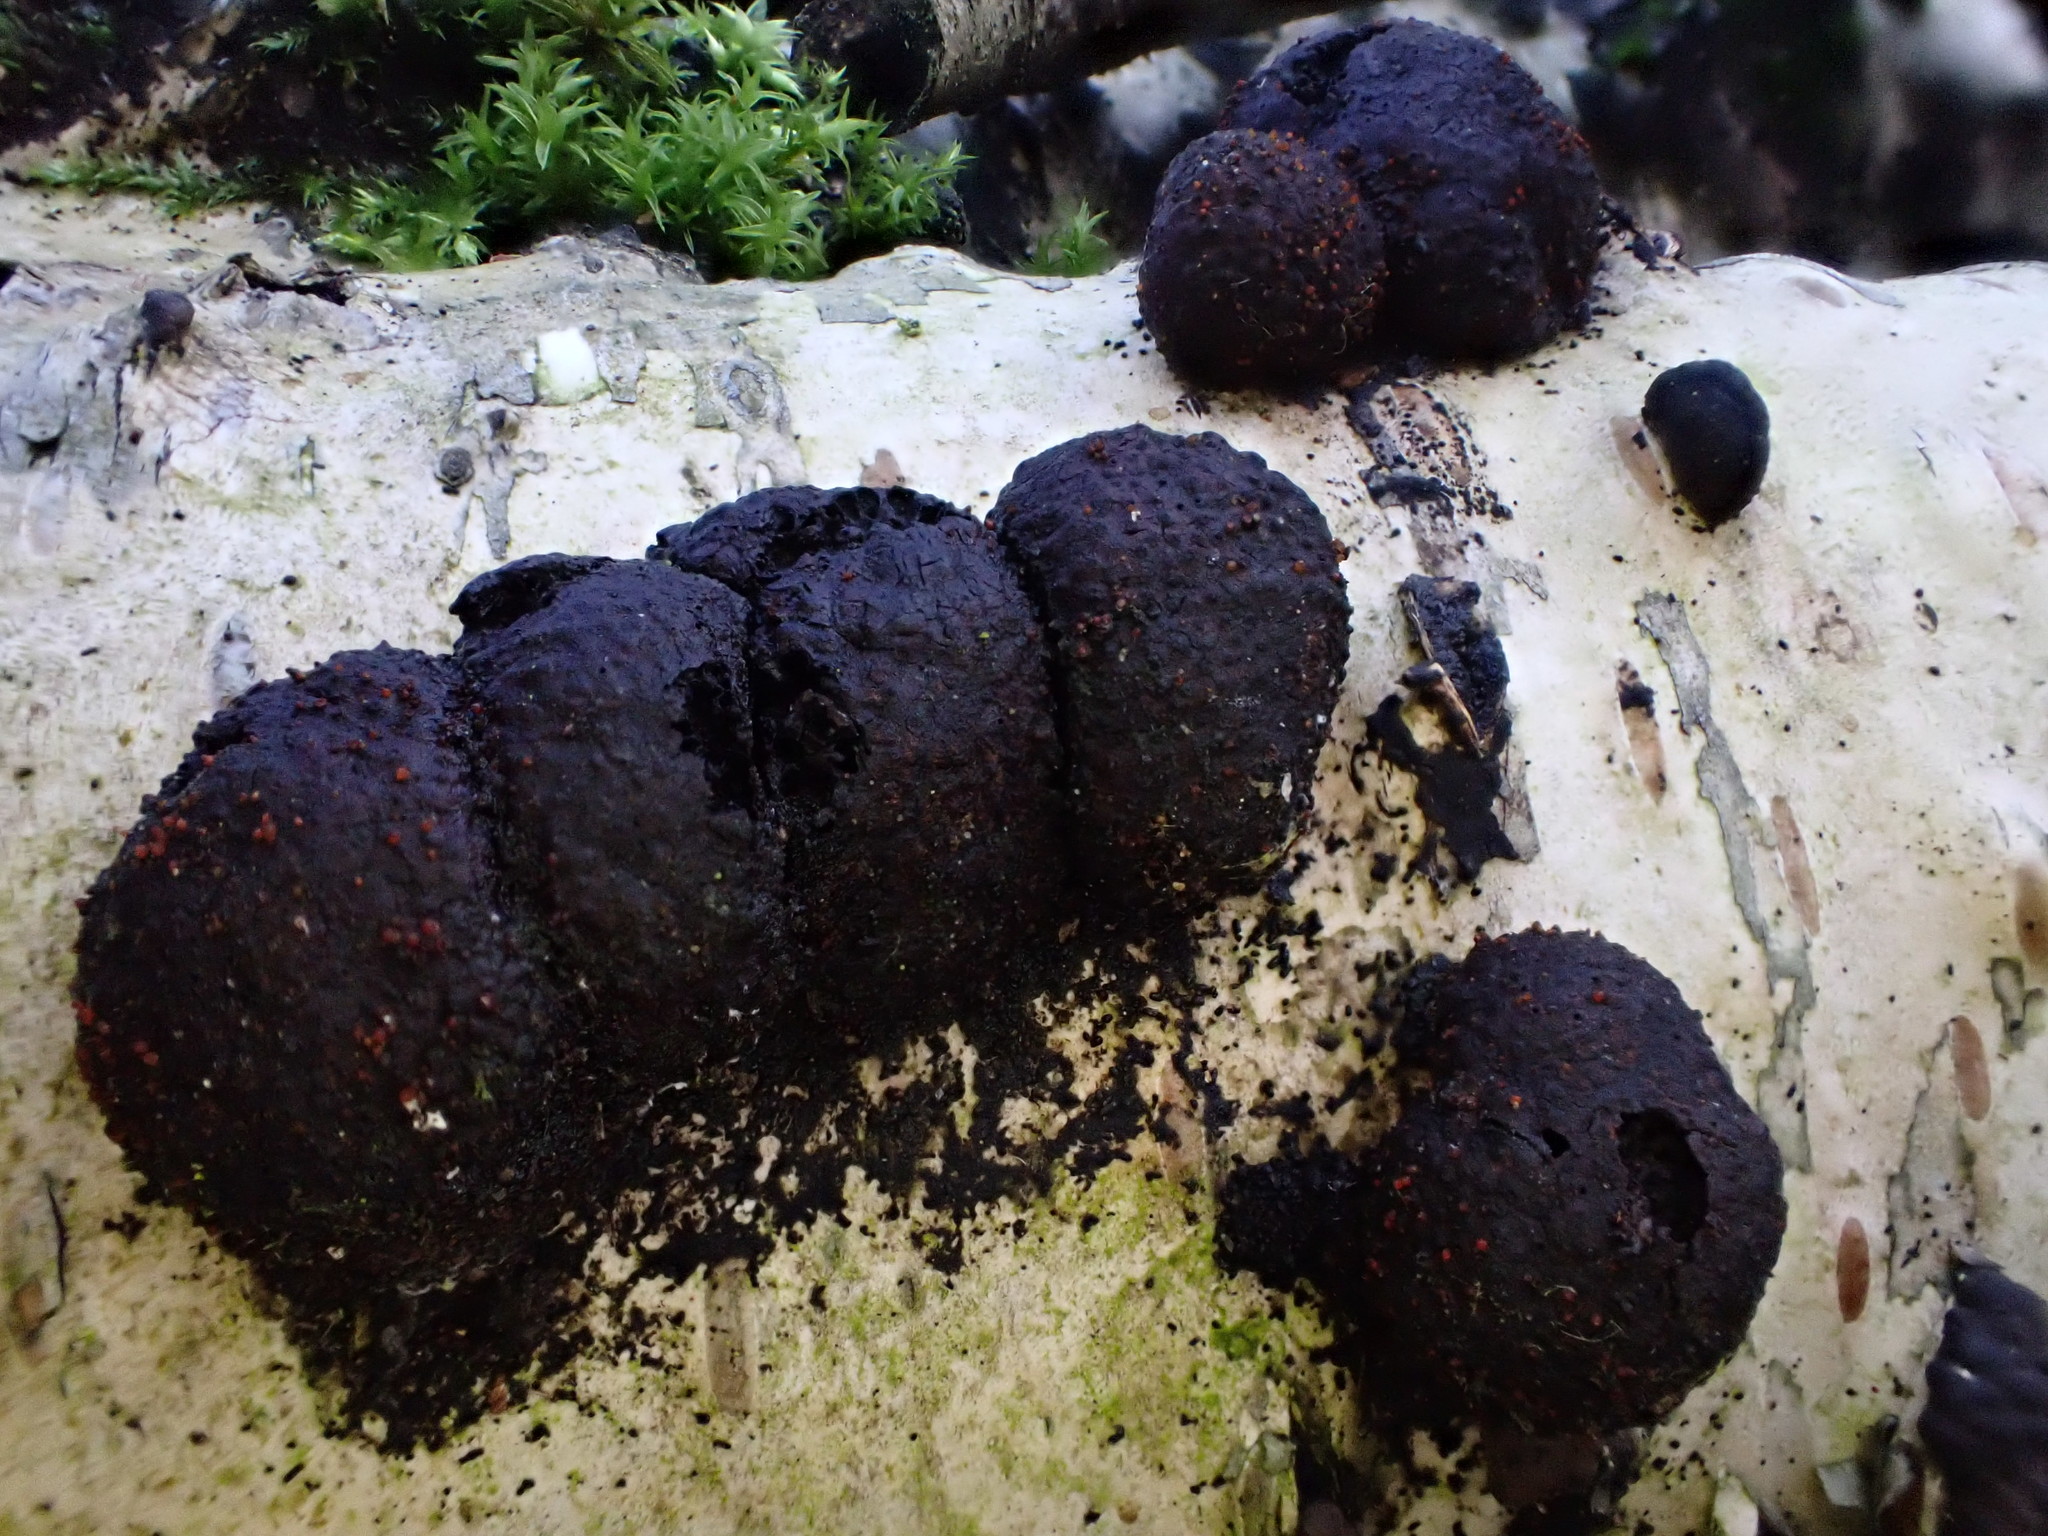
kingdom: Fungi
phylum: Ascomycota
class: Sordariomycetes
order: Hypocreales
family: Nectriaceae
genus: Cosmospora
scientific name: Cosmospora arxii
